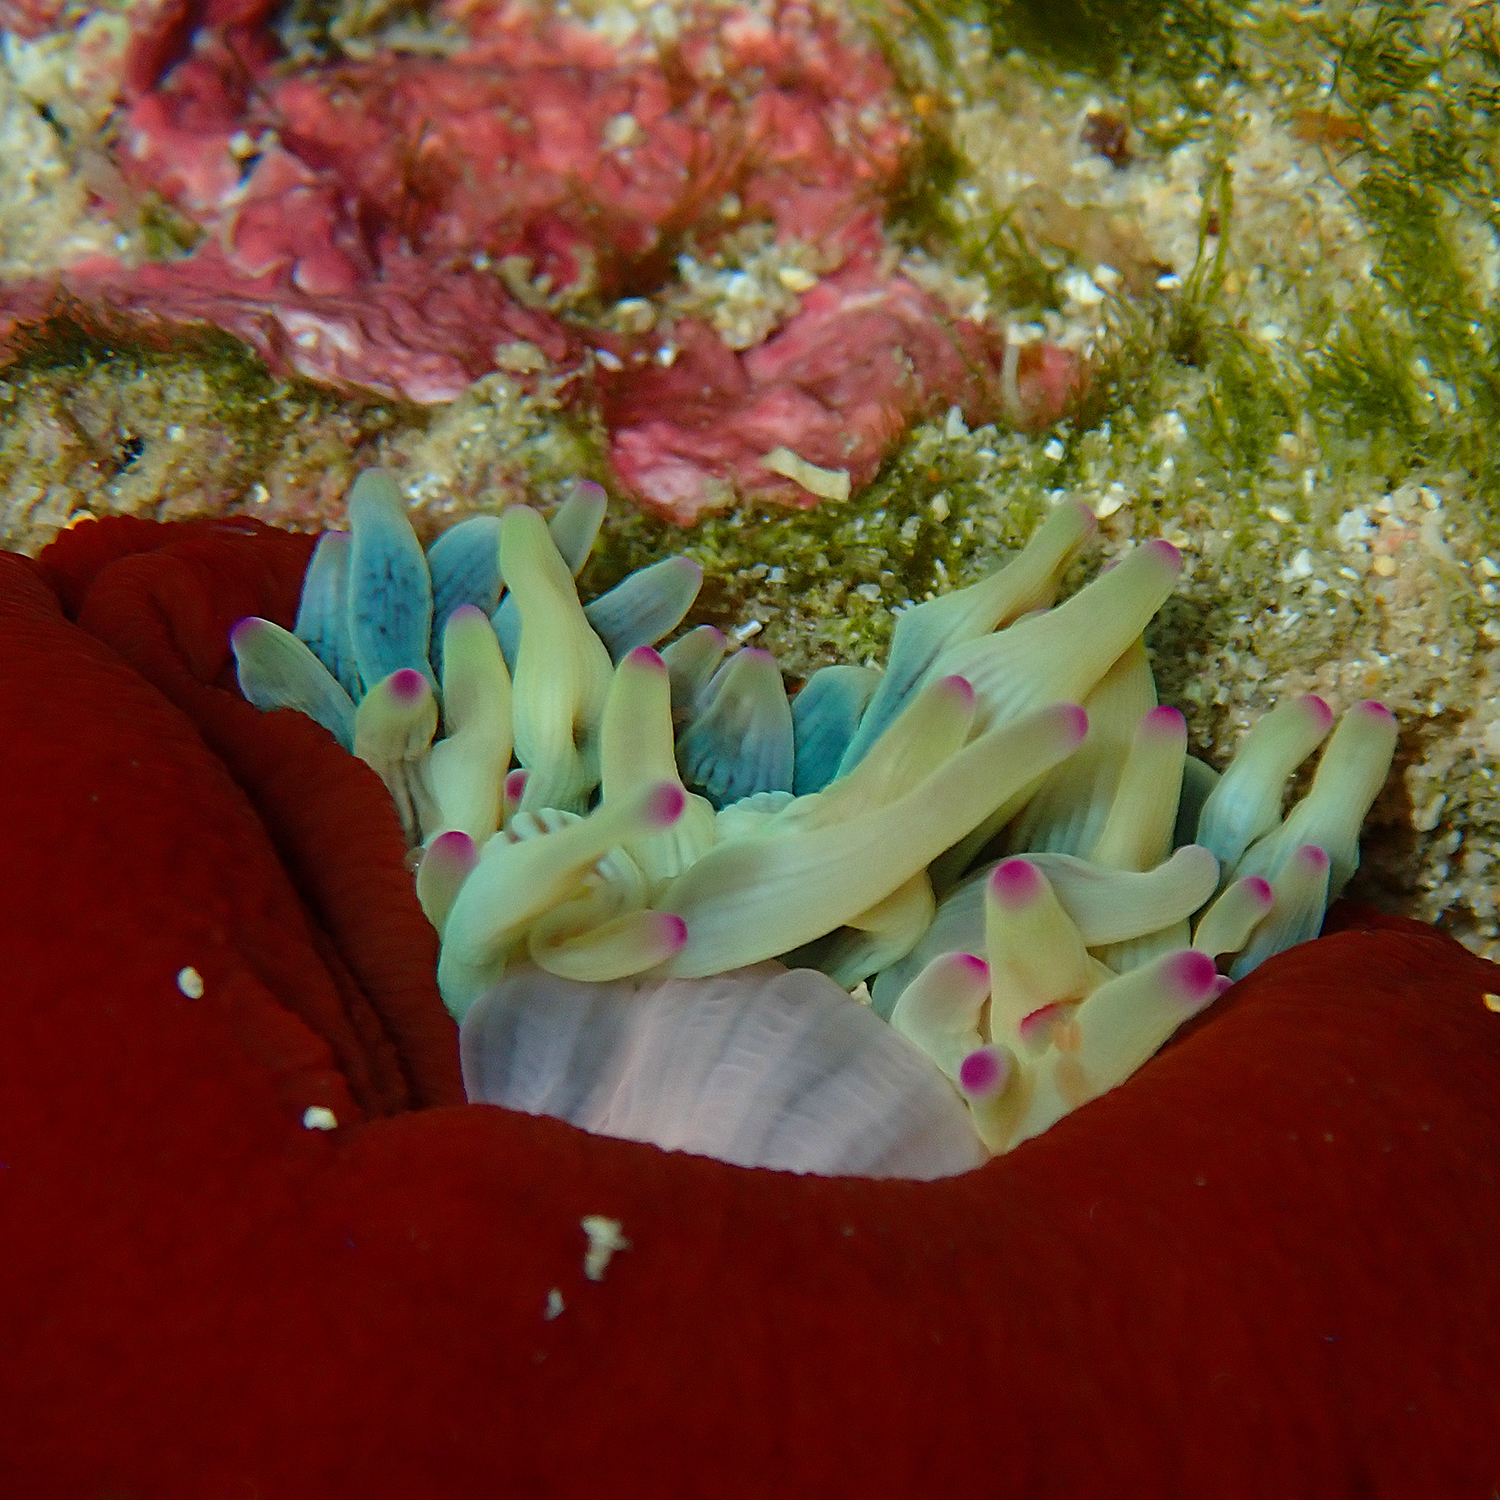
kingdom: Animalia
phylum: Cnidaria
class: Anthozoa
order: Actiniaria
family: Actiniidae
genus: Entacmaea
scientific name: Entacmaea quadricolor
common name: Bulb tentacle sea anemone
